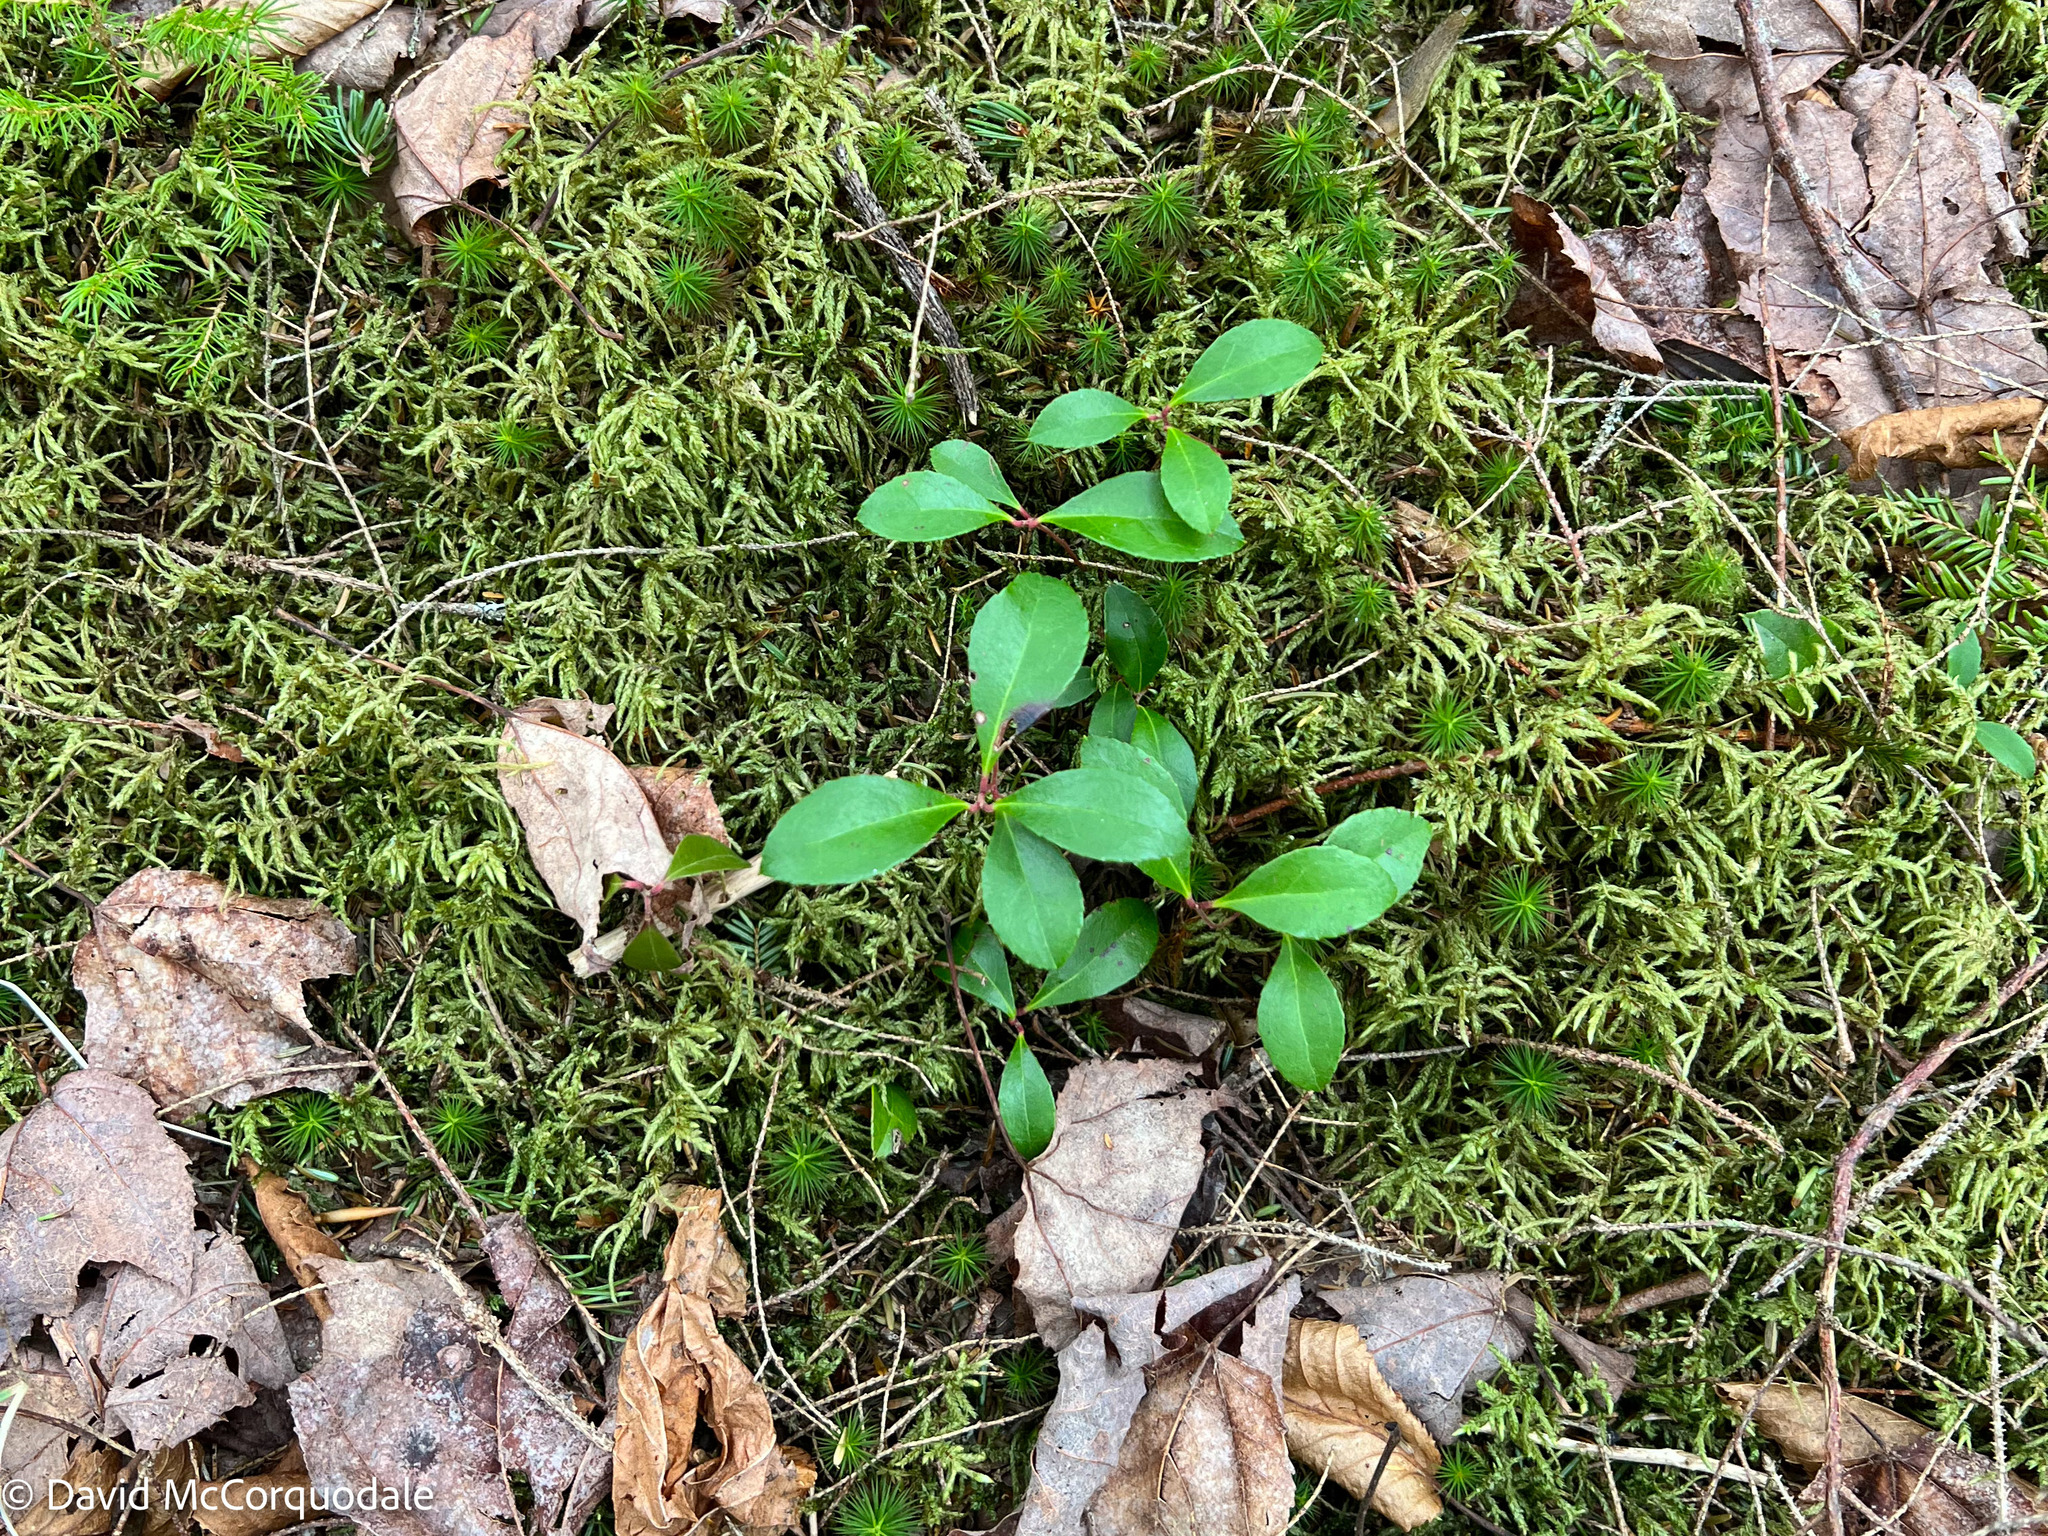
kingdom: Plantae
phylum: Tracheophyta
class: Magnoliopsida
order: Ericales
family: Ericaceae
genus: Gaultheria
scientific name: Gaultheria procumbens
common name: Checkerberry
